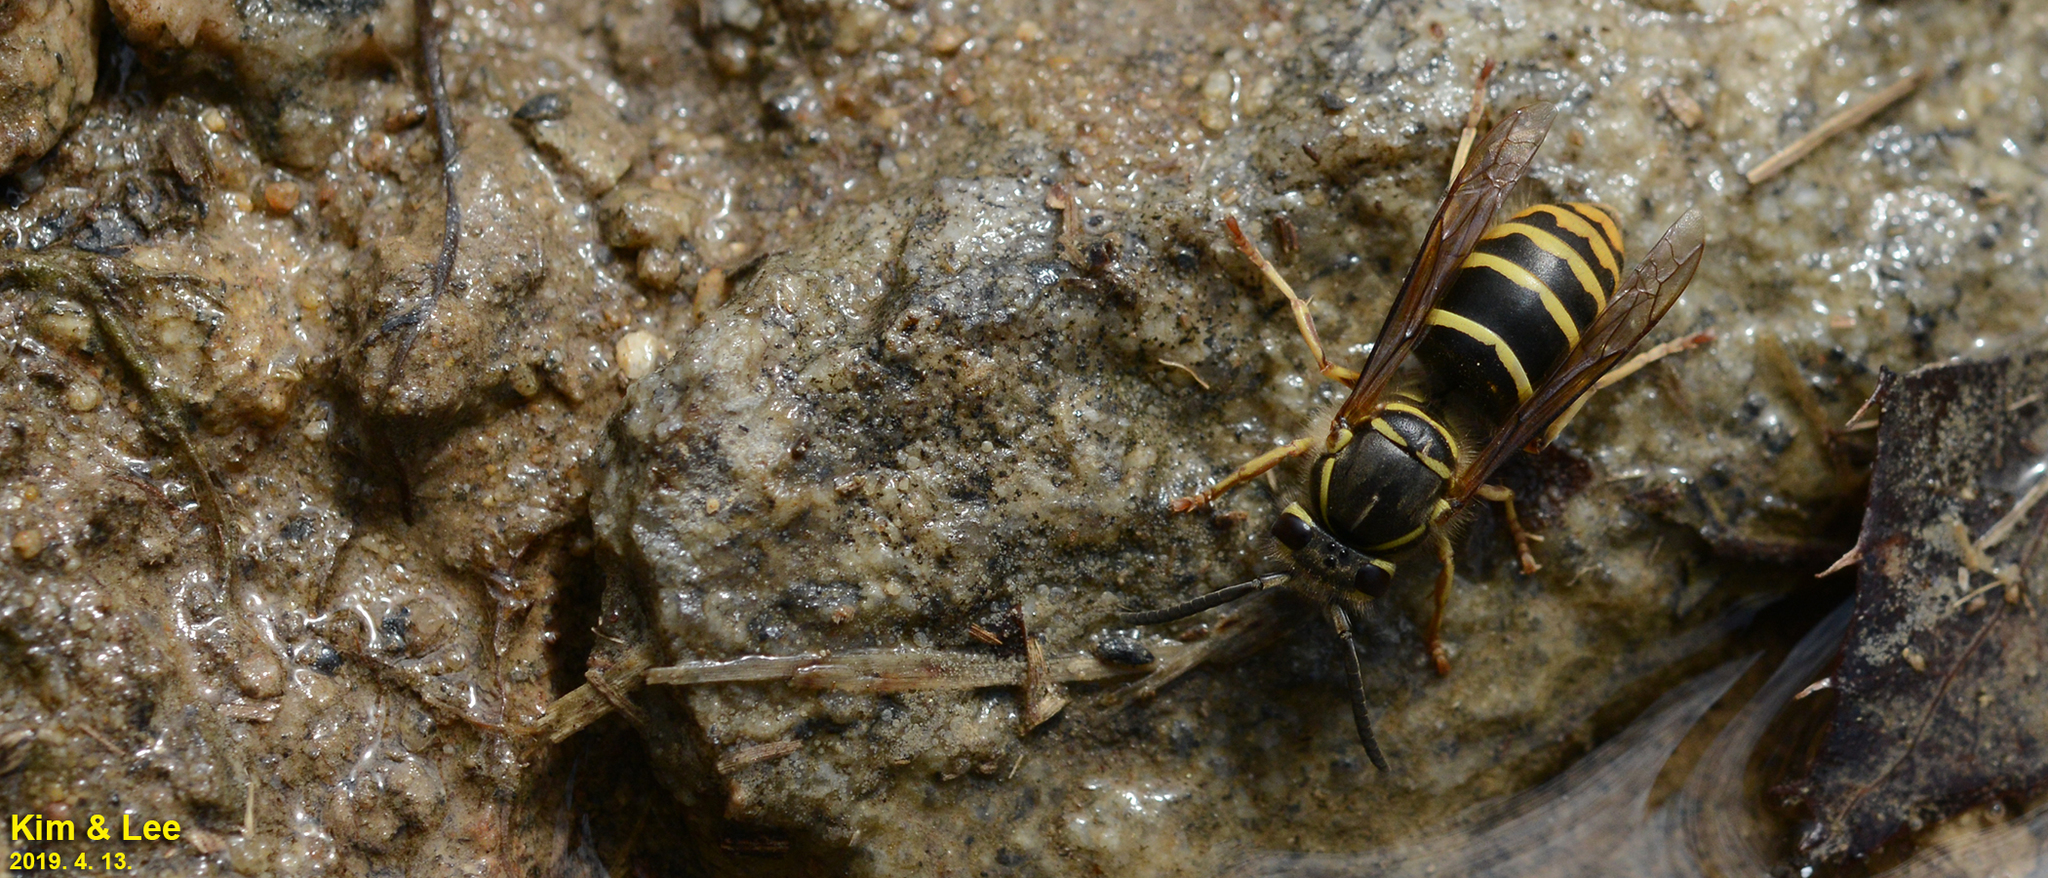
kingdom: Animalia
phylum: Arthropoda
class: Insecta
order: Hymenoptera
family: Vespidae
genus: Vespula
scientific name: Vespula flaviceps
